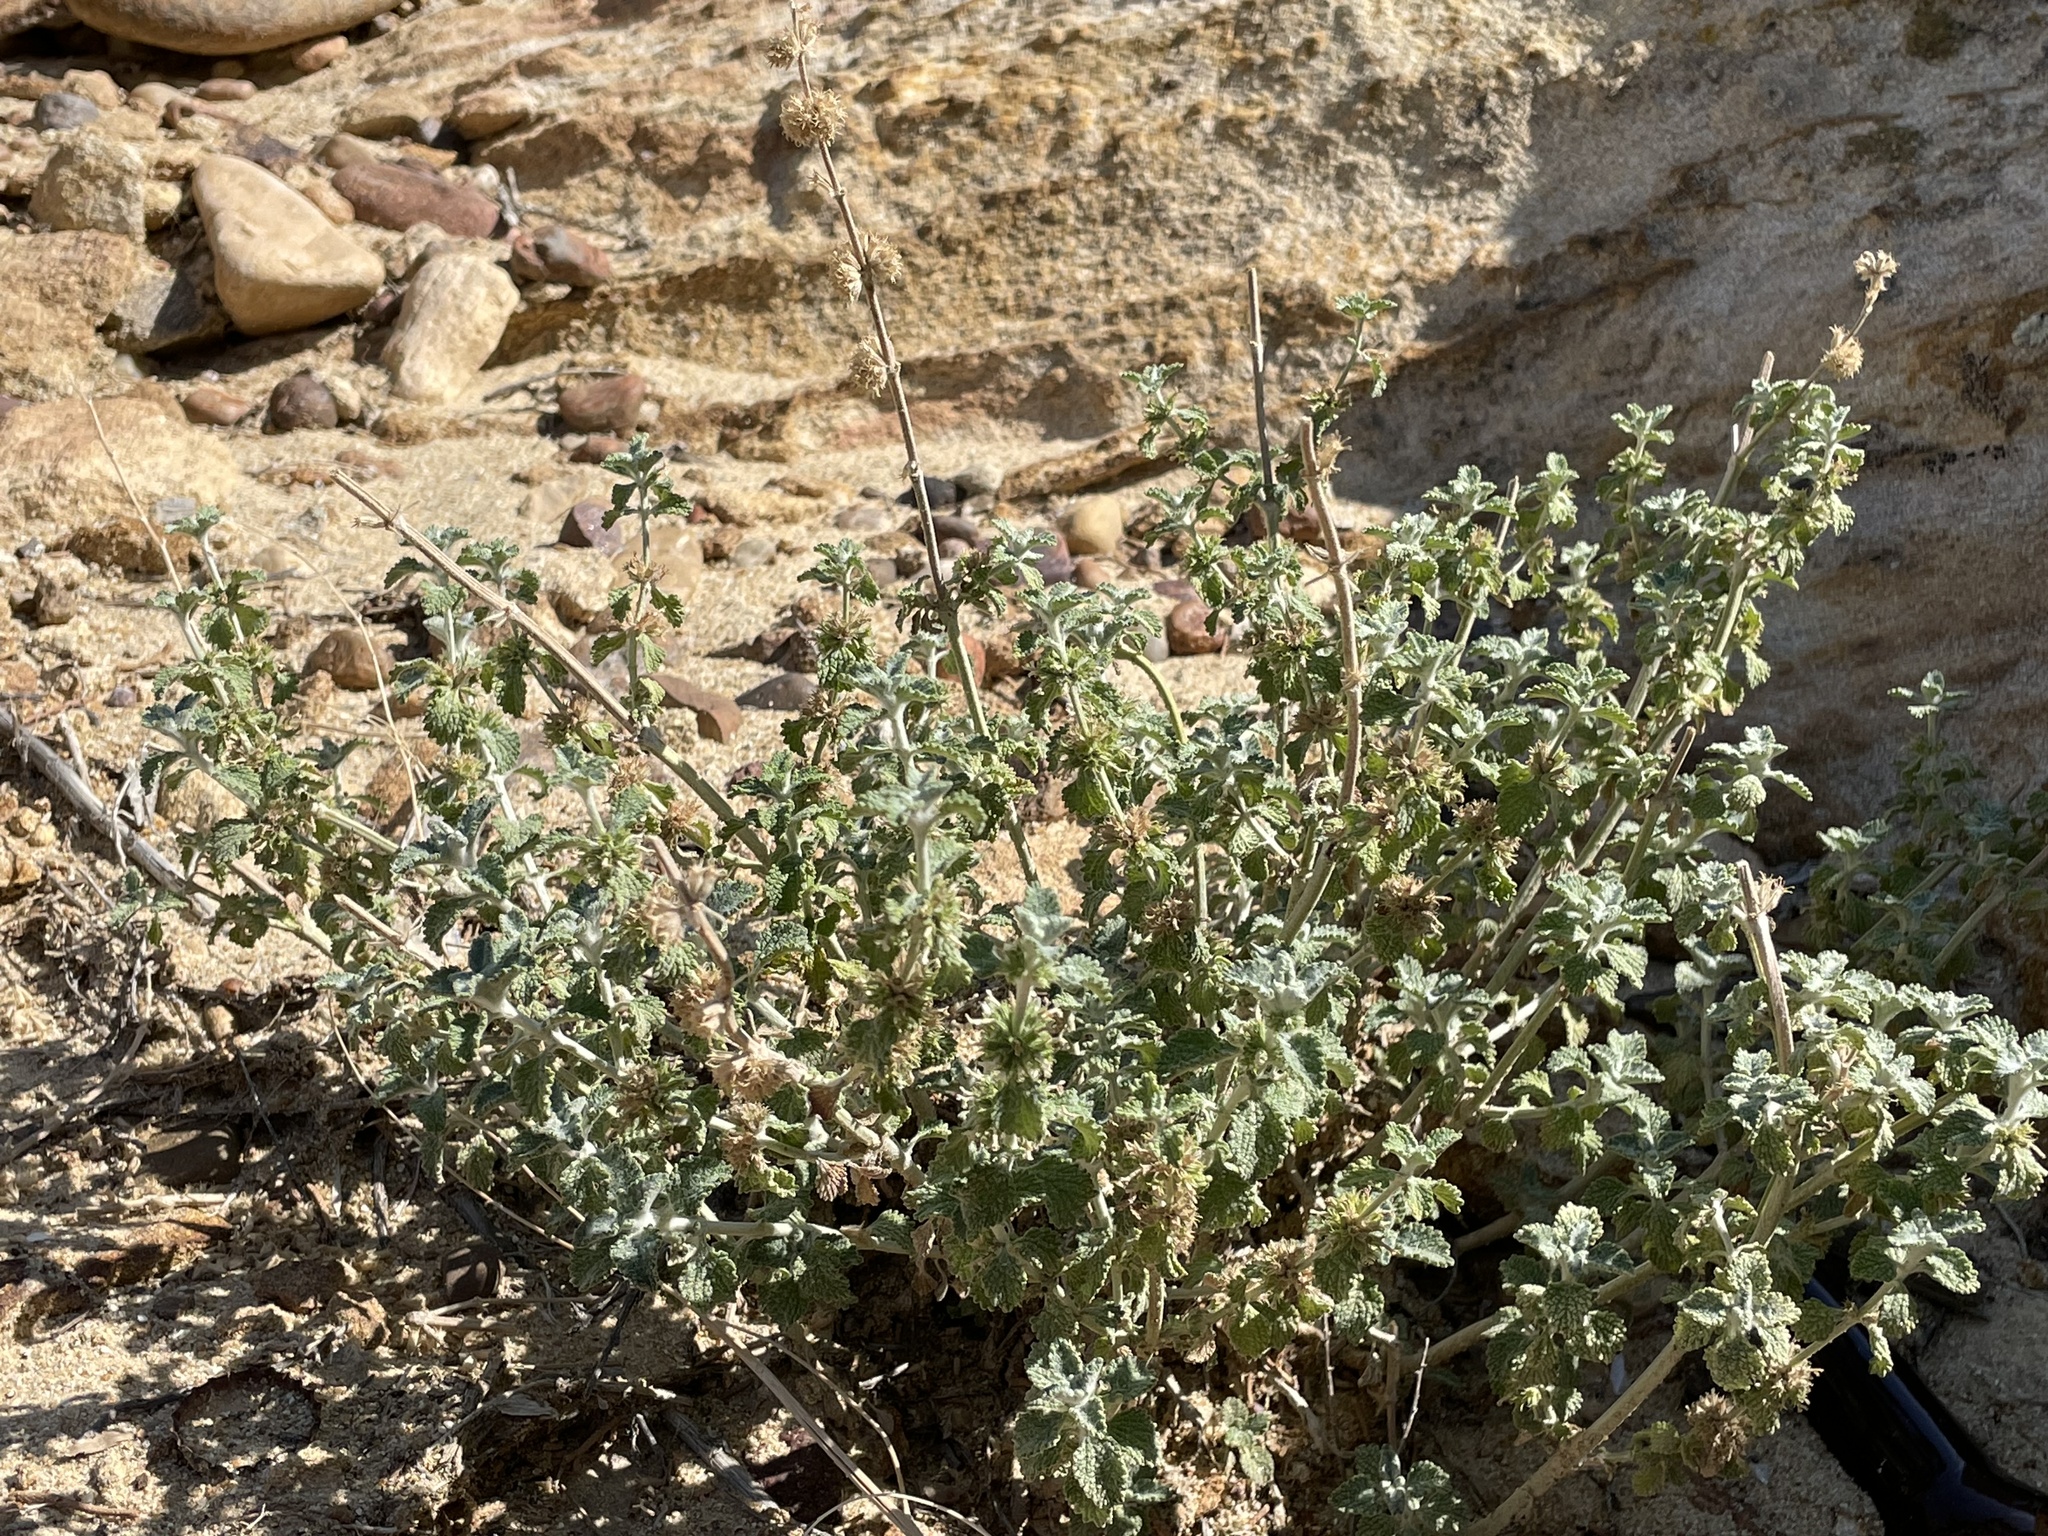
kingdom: Plantae
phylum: Tracheophyta
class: Magnoliopsida
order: Lamiales
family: Lamiaceae
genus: Marrubium
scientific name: Marrubium vulgare
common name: Horehound
